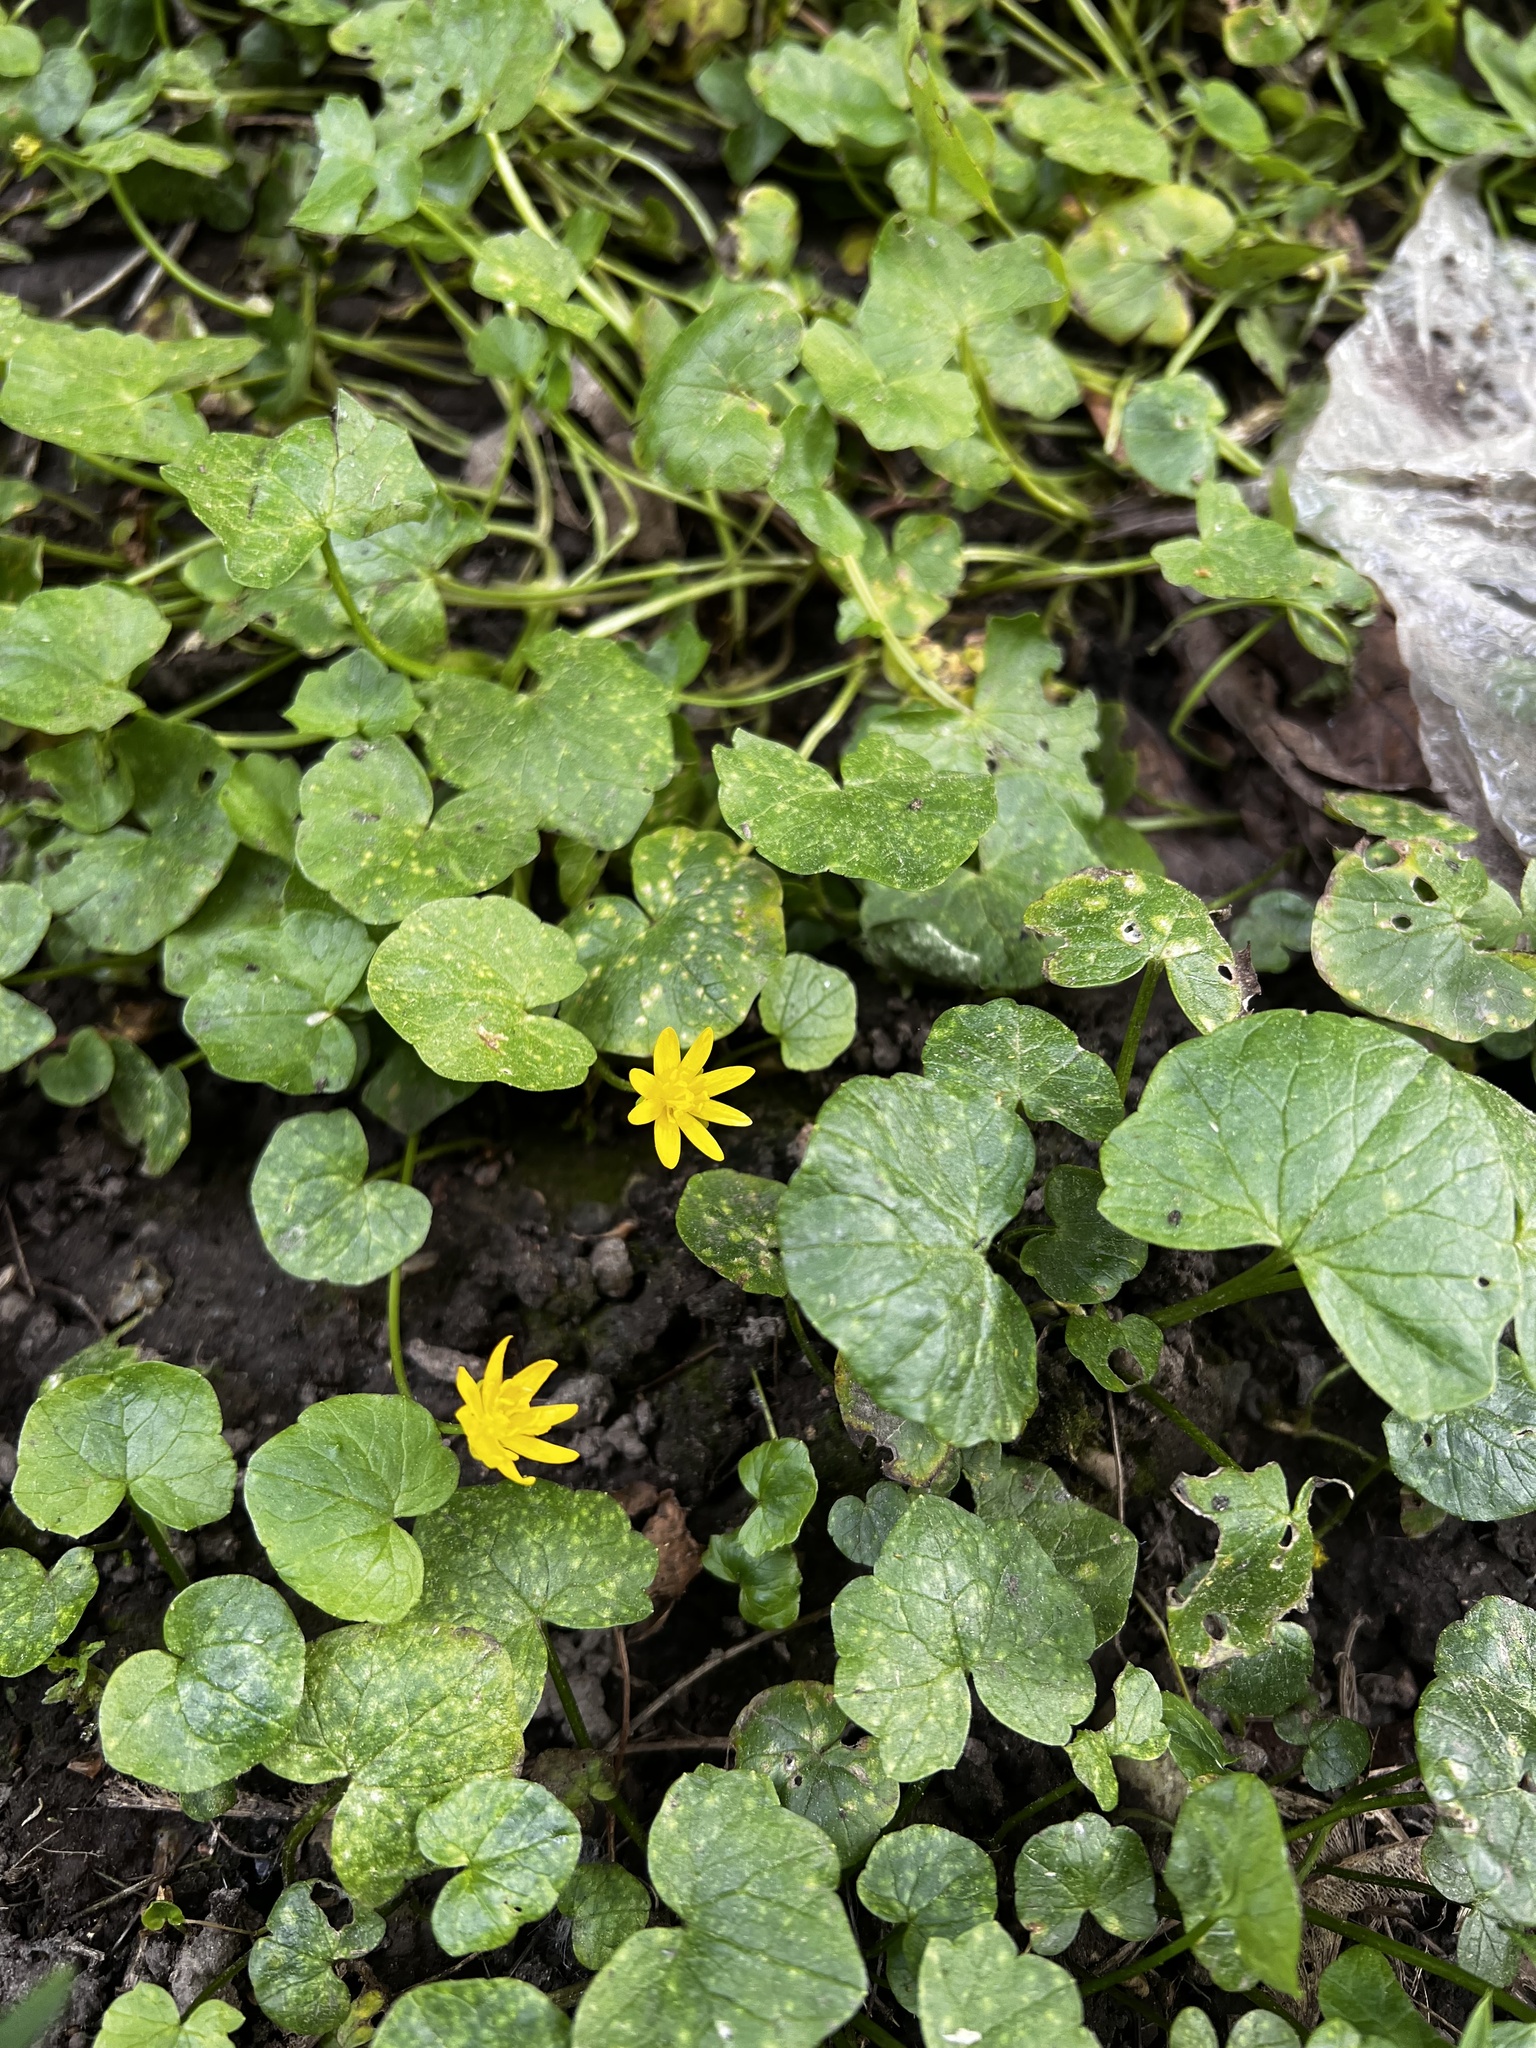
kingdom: Plantae
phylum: Tracheophyta
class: Magnoliopsida
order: Ranunculales
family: Ranunculaceae
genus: Ficaria
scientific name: Ficaria verna
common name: Lesser celandine
